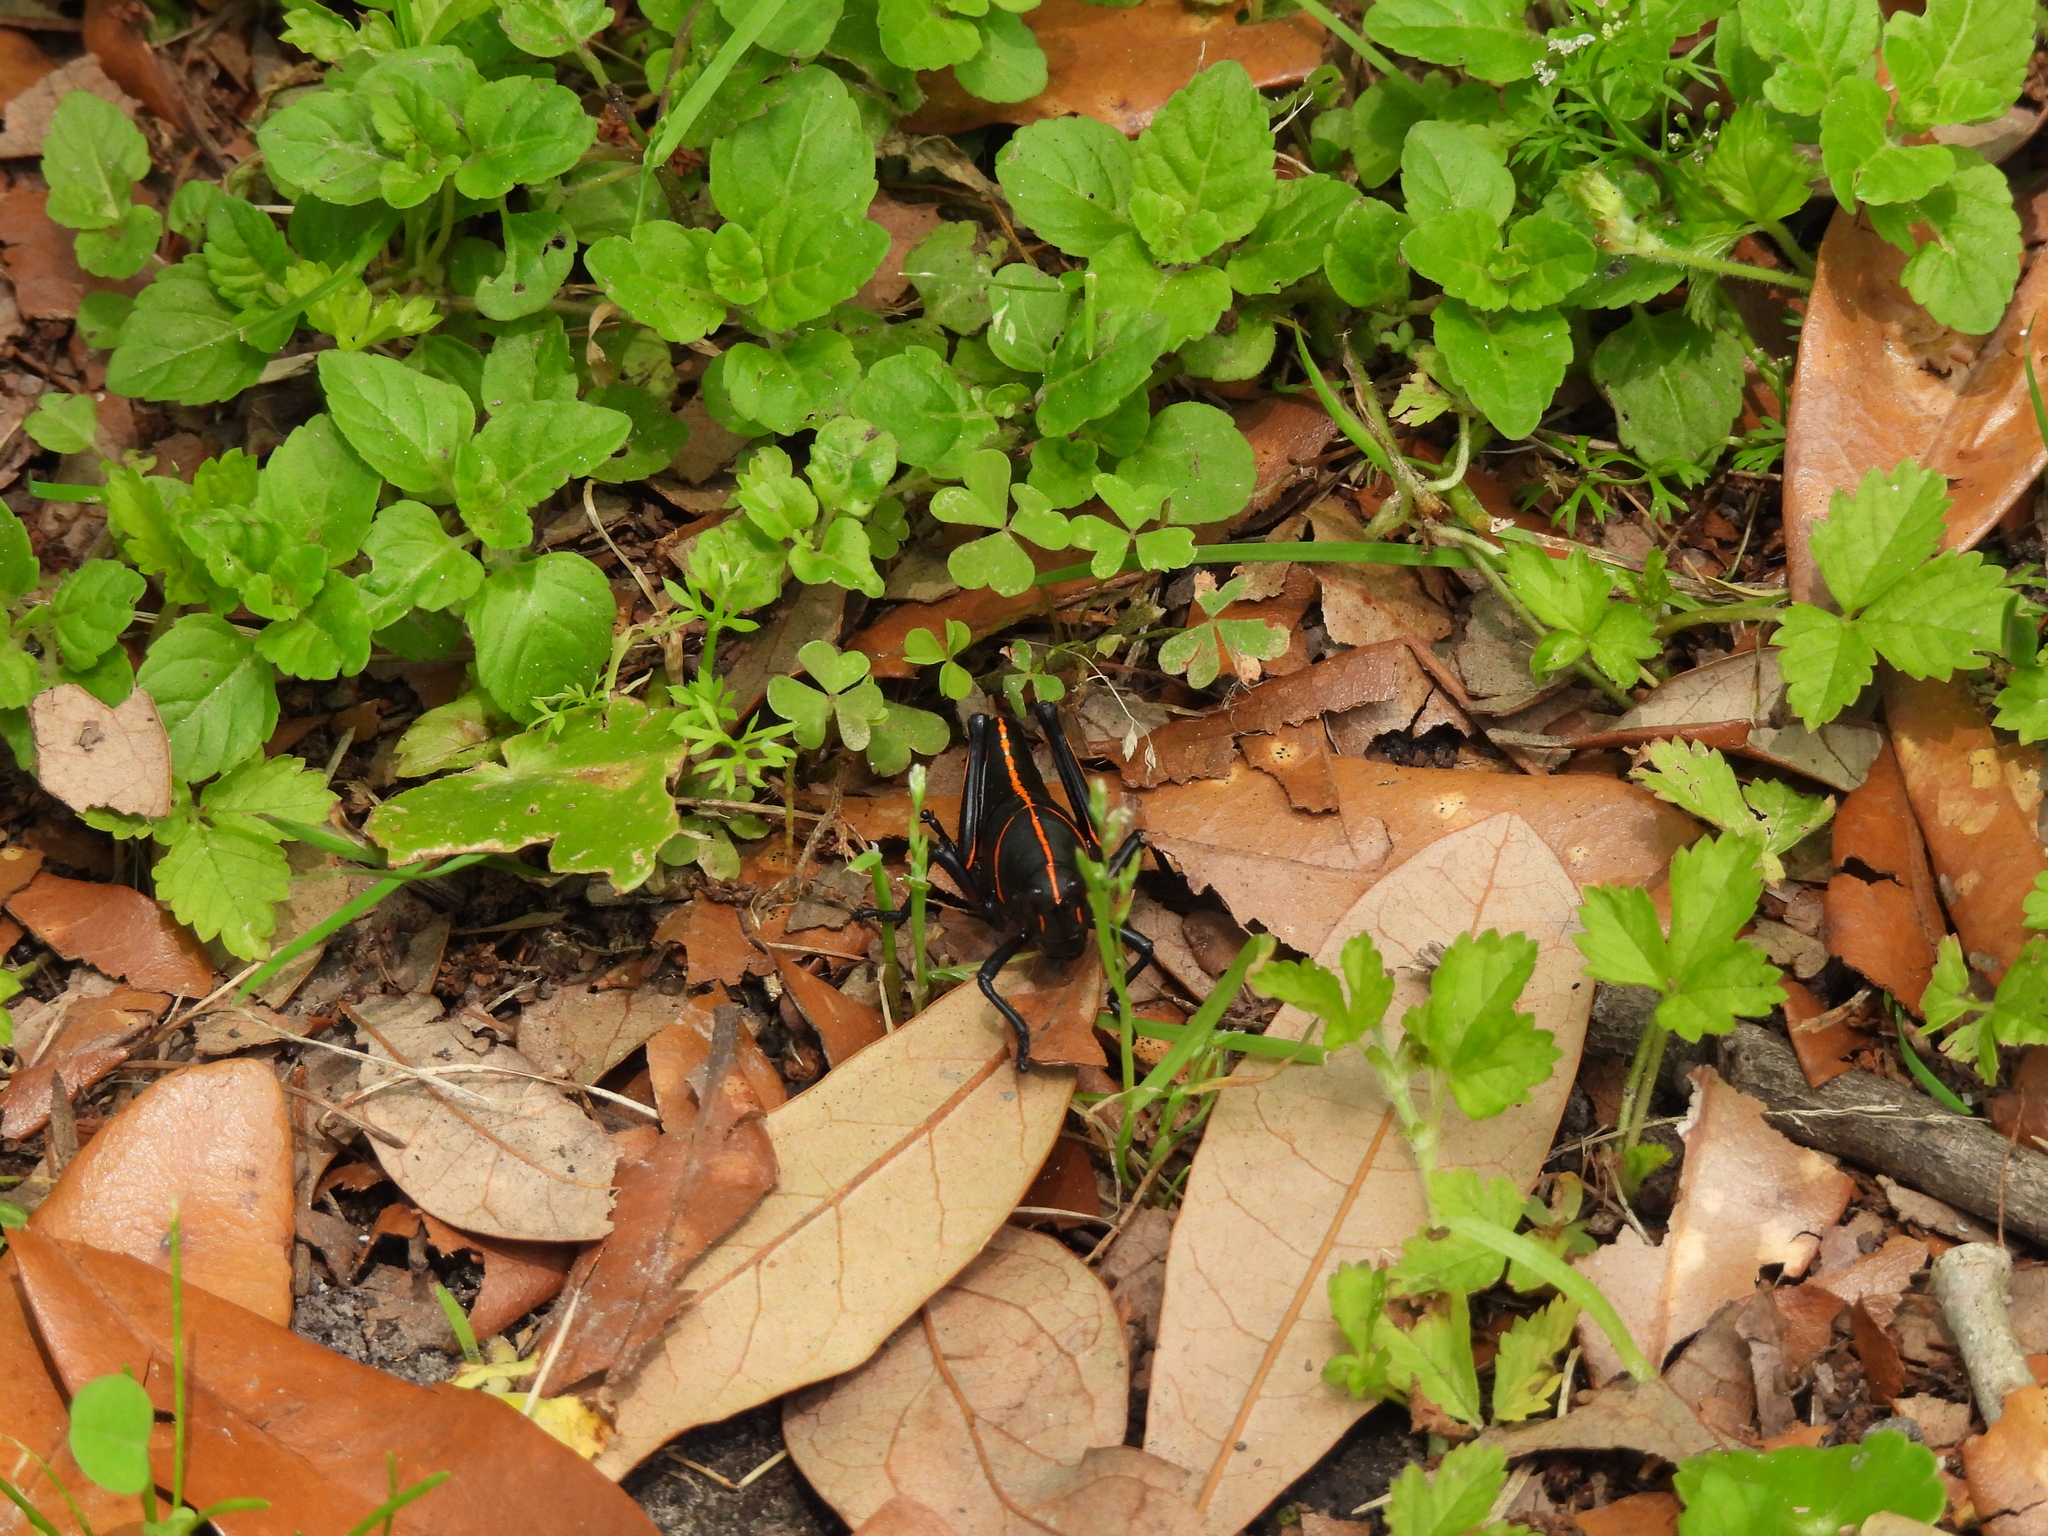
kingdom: Animalia
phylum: Arthropoda
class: Insecta
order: Orthoptera
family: Romaleidae
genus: Romalea
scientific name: Romalea microptera
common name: Eastern lubber grasshopper
